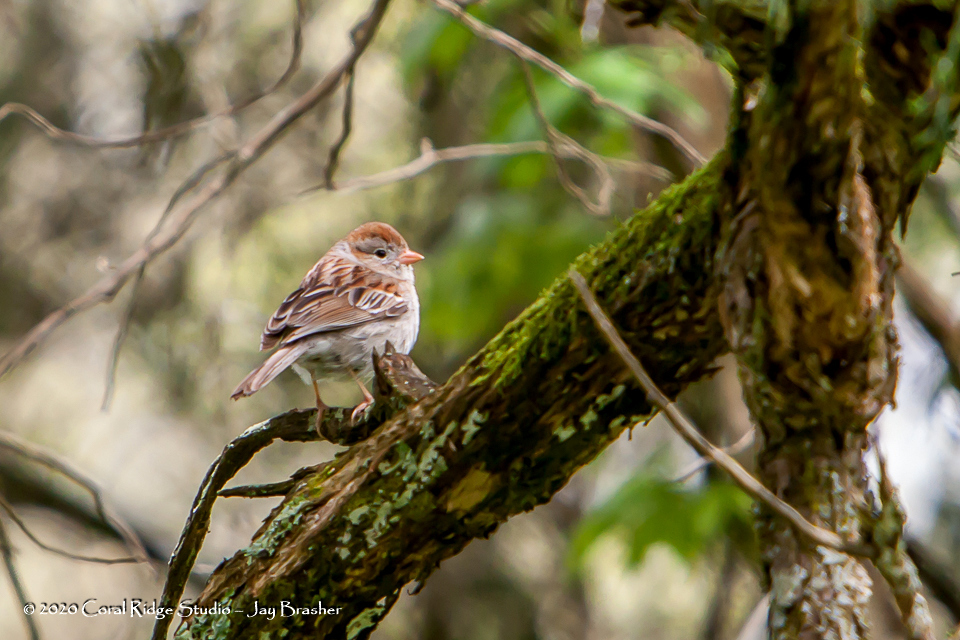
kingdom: Animalia
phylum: Chordata
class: Aves
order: Passeriformes
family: Passerellidae
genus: Spizella
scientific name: Spizella pusilla
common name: Field sparrow
